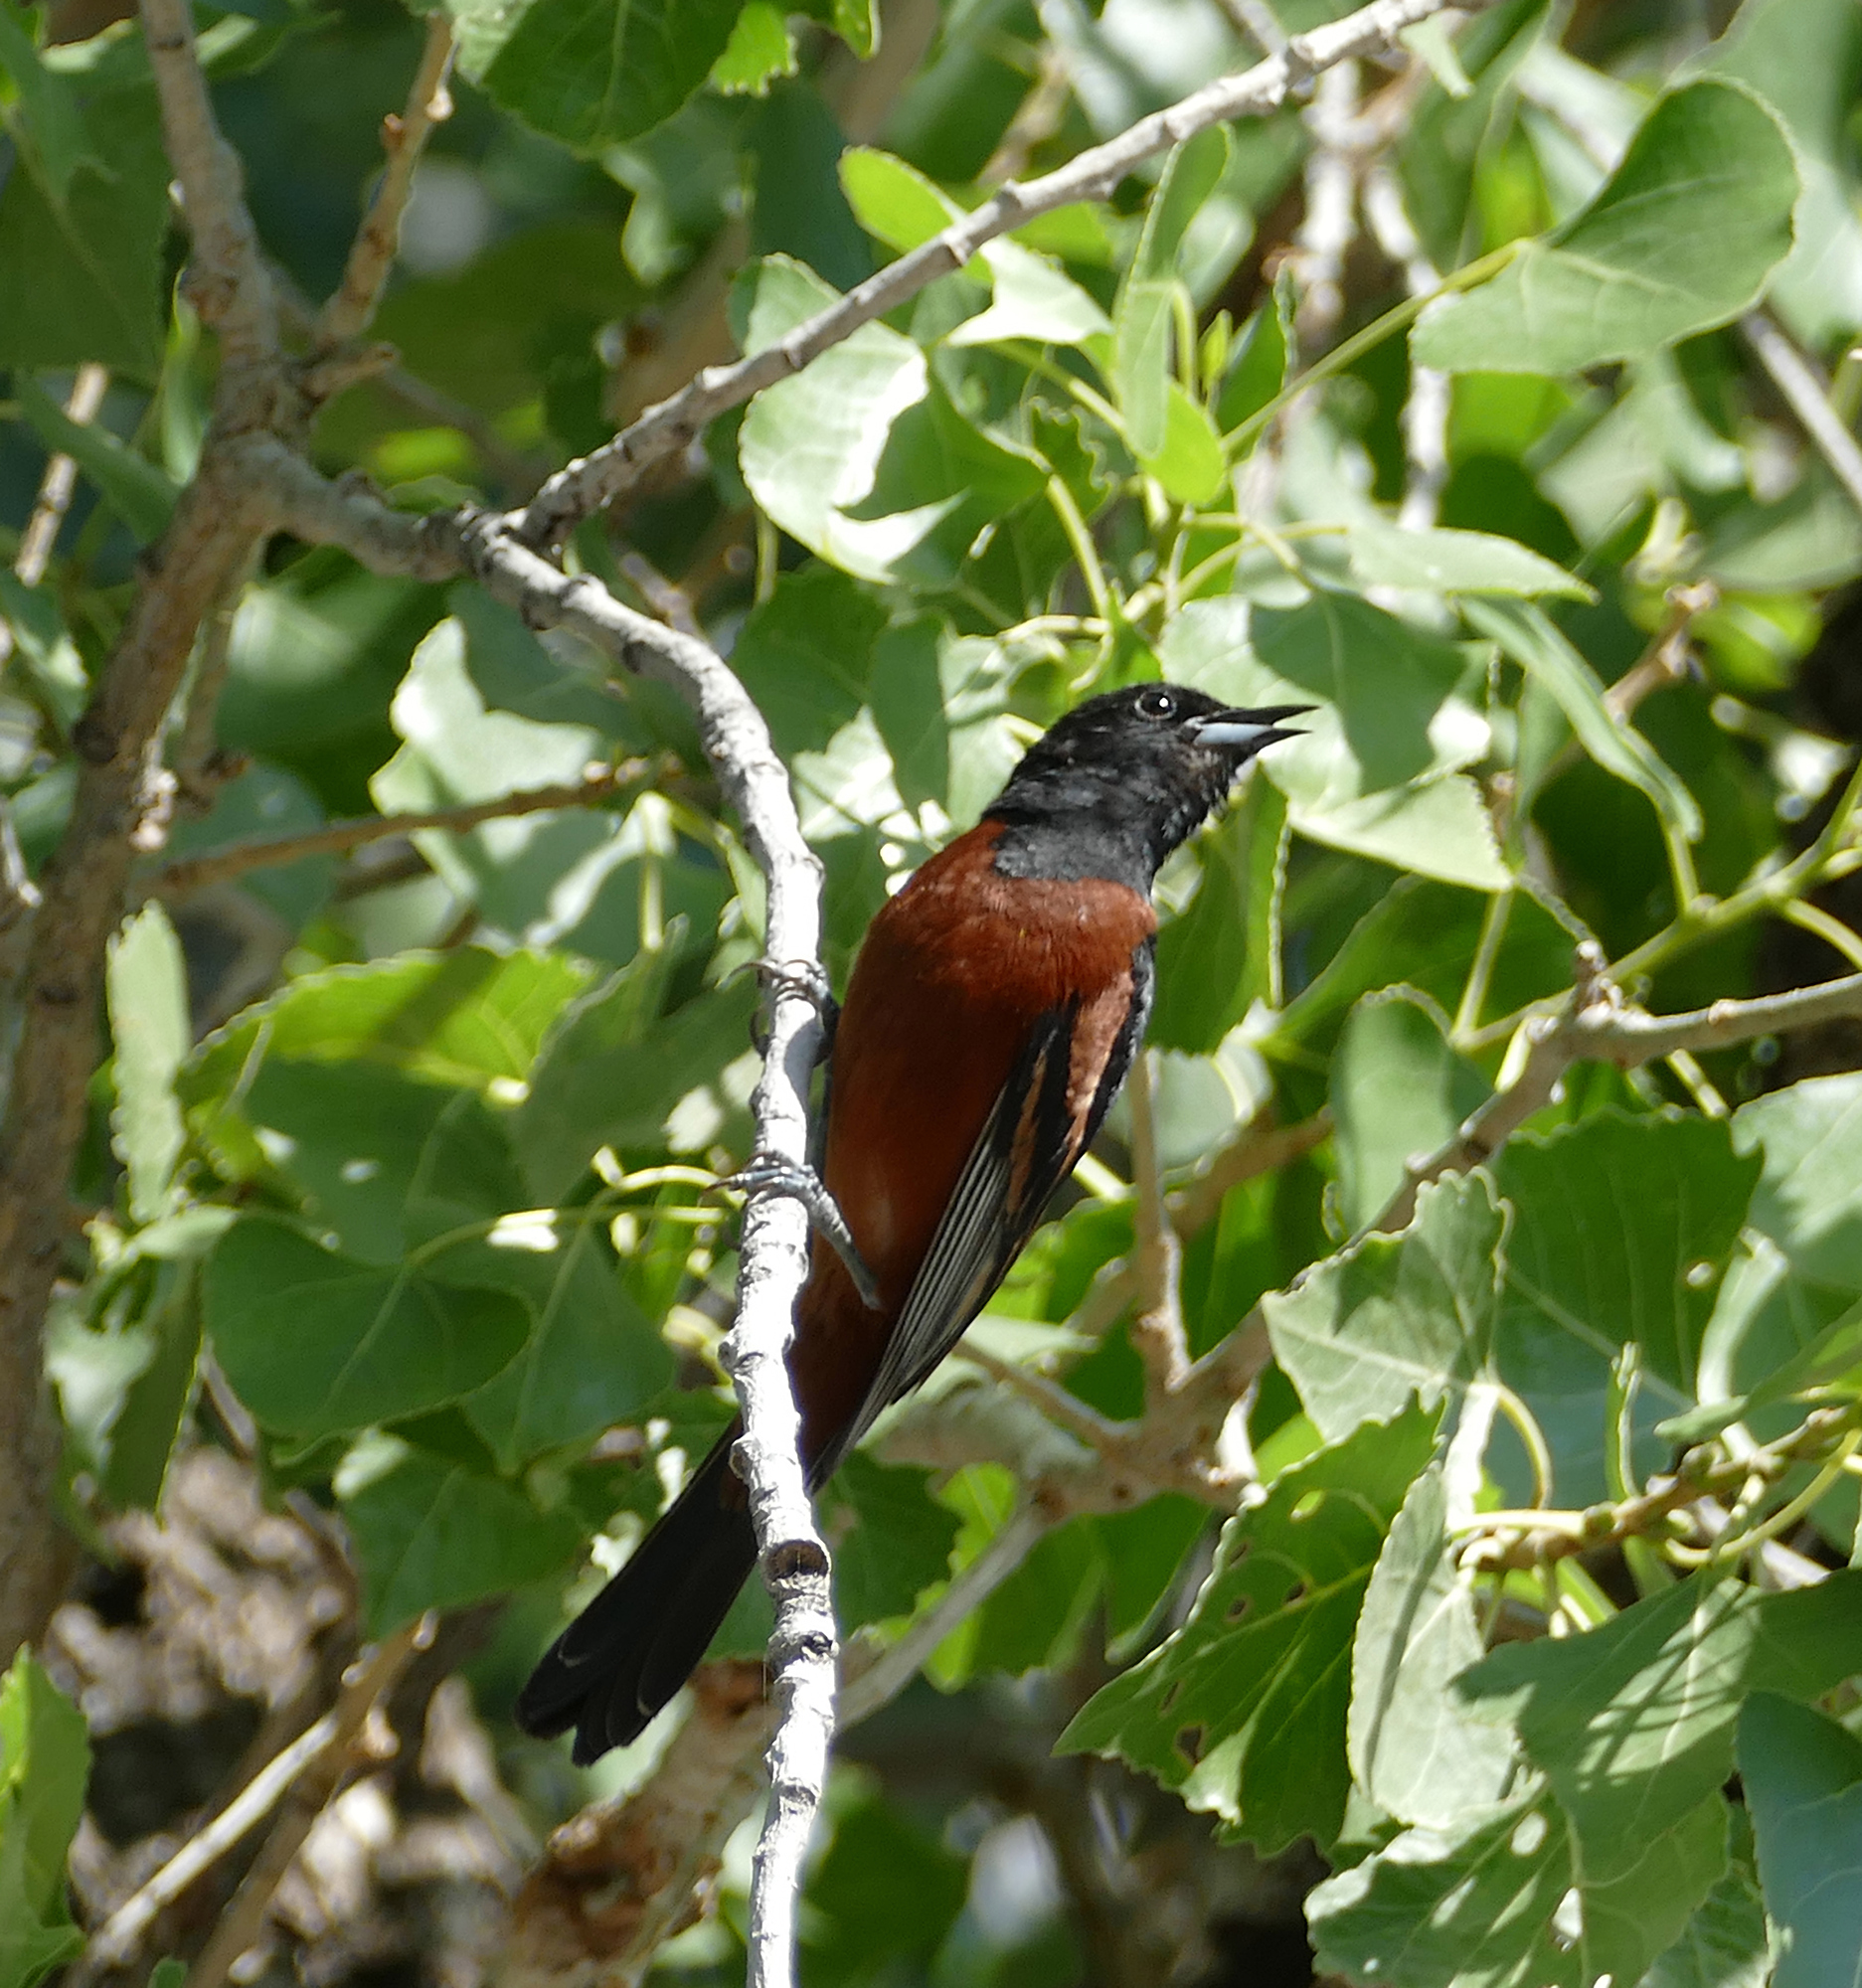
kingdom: Animalia
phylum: Chordata
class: Aves
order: Passeriformes
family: Icteridae
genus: Icterus
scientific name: Icterus spurius
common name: Orchard oriole
